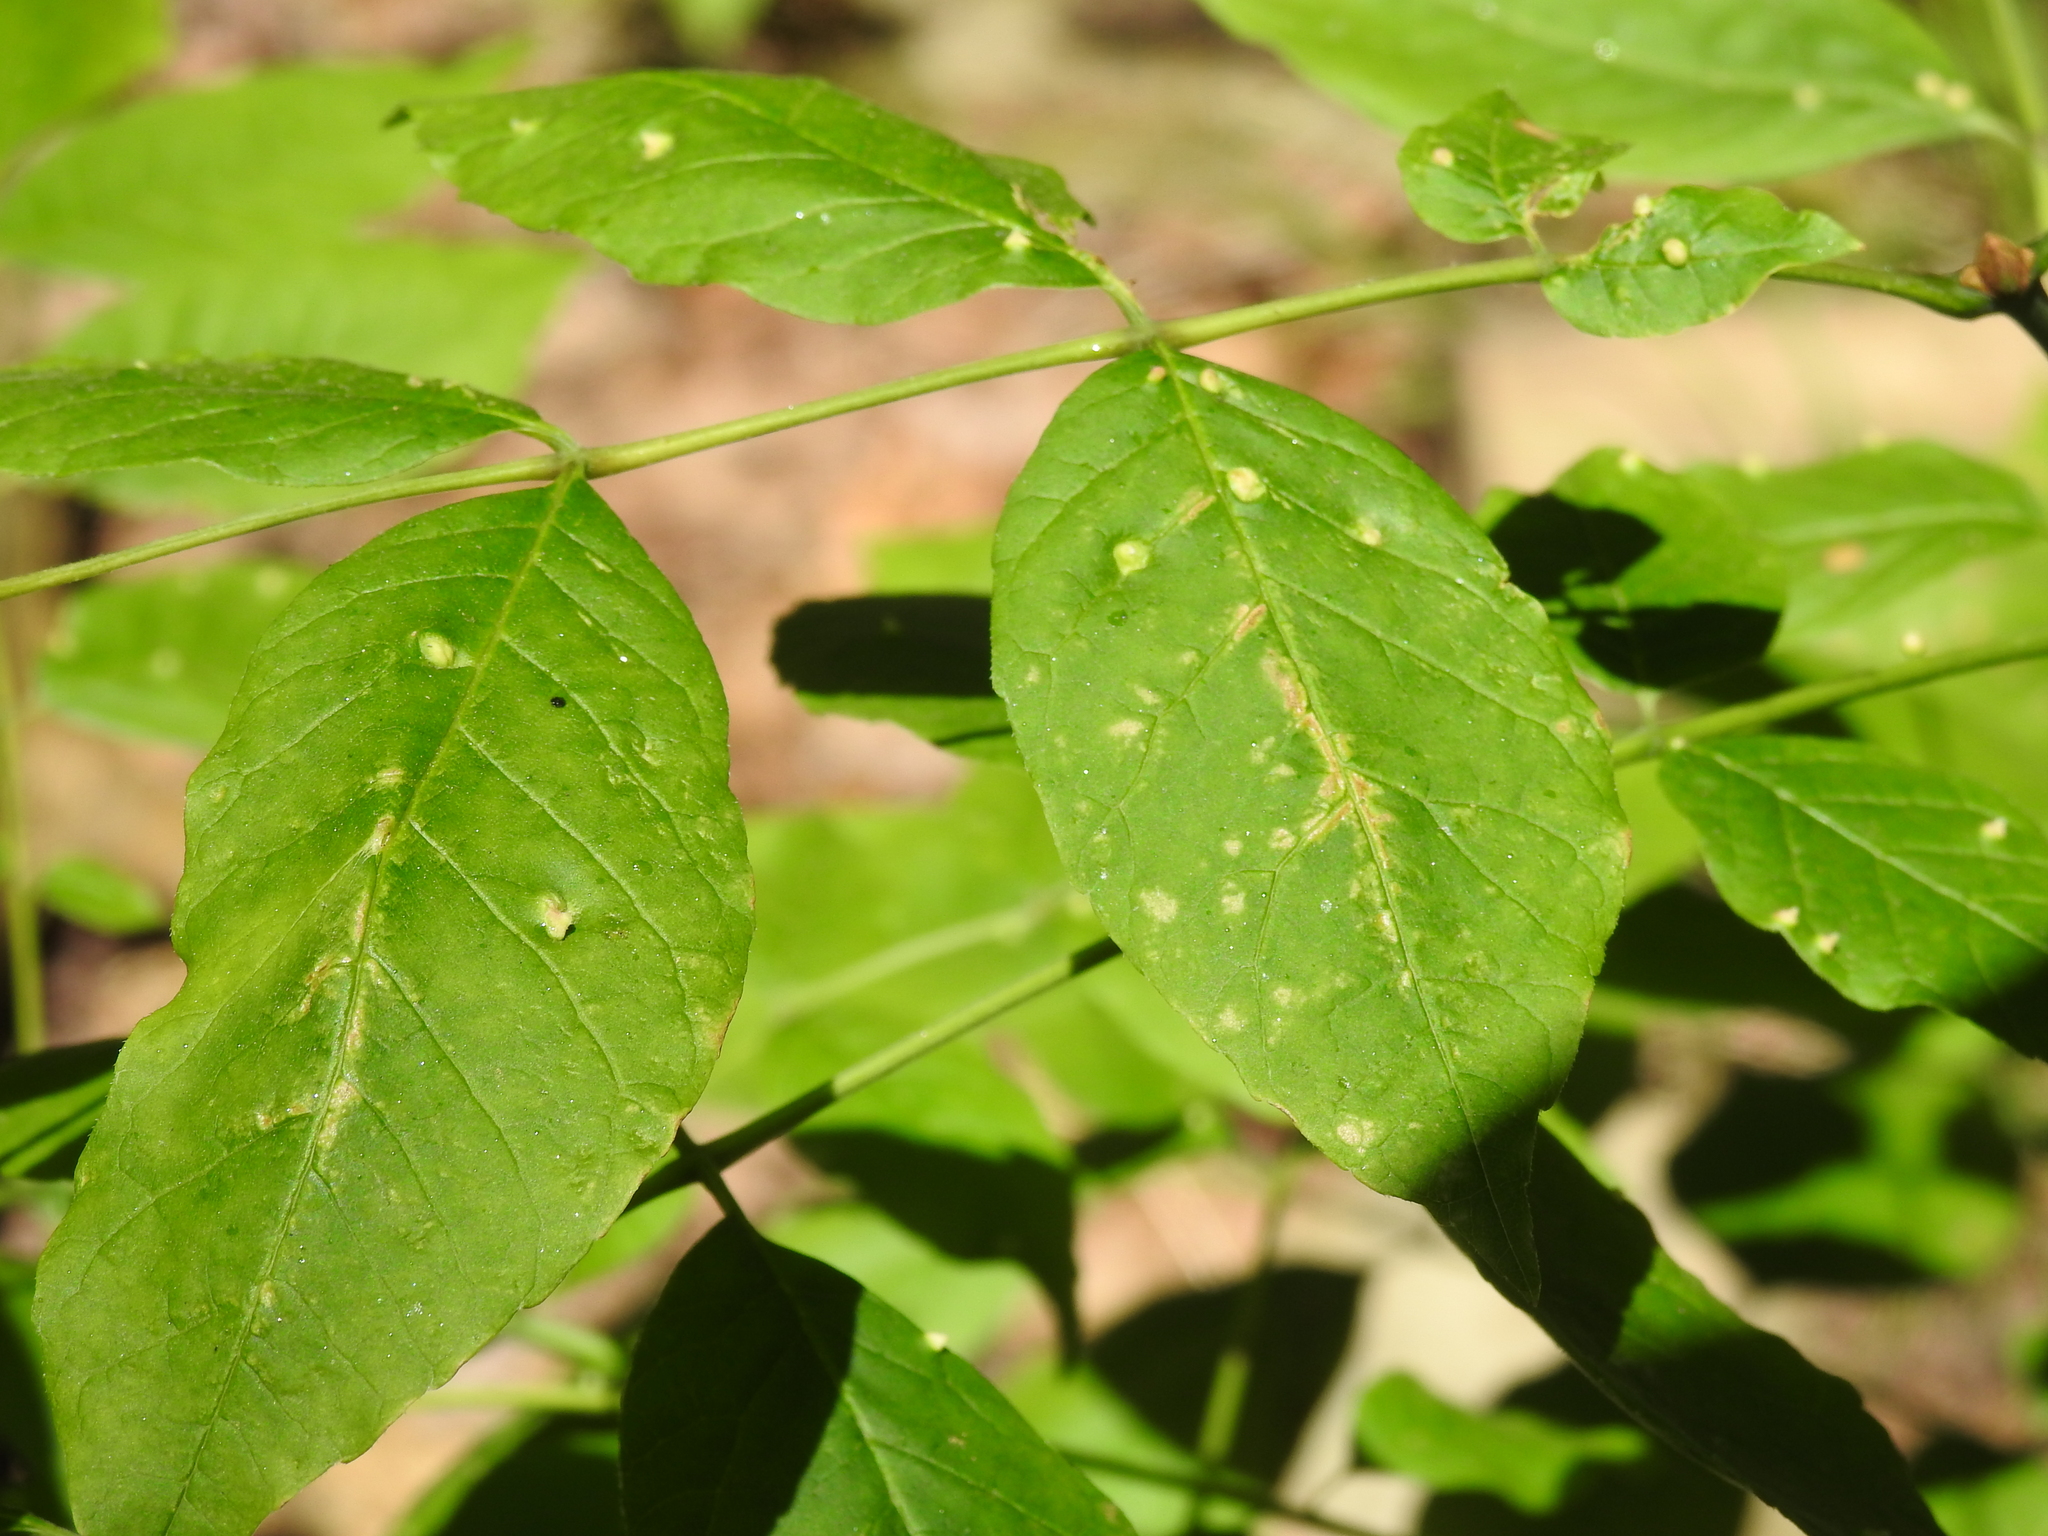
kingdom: Animalia
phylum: Arthropoda
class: Arachnida
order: Trombidiformes
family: Eriophyidae
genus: Aceria
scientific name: Aceria fraxinicola
